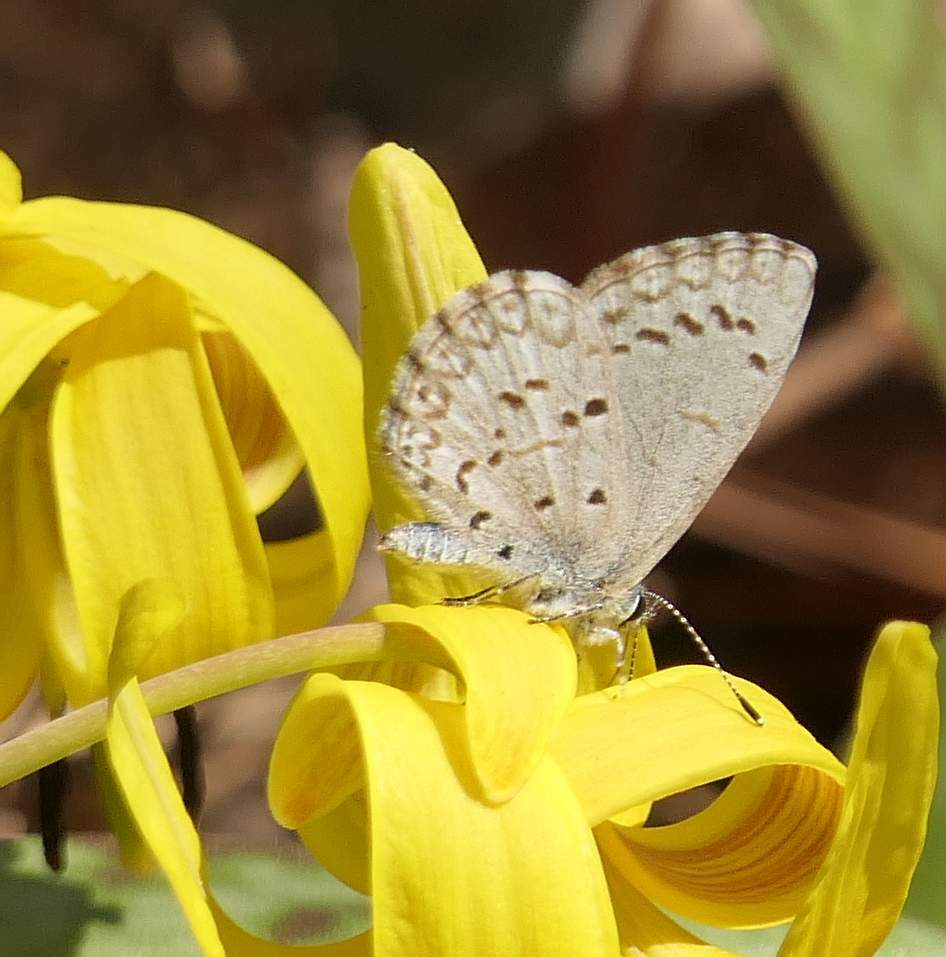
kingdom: Animalia
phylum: Arthropoda
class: Insecta
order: Lepidoptera
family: Lycaenidae
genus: Celastrina
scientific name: Celastrina lucia
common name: Lucia azure
